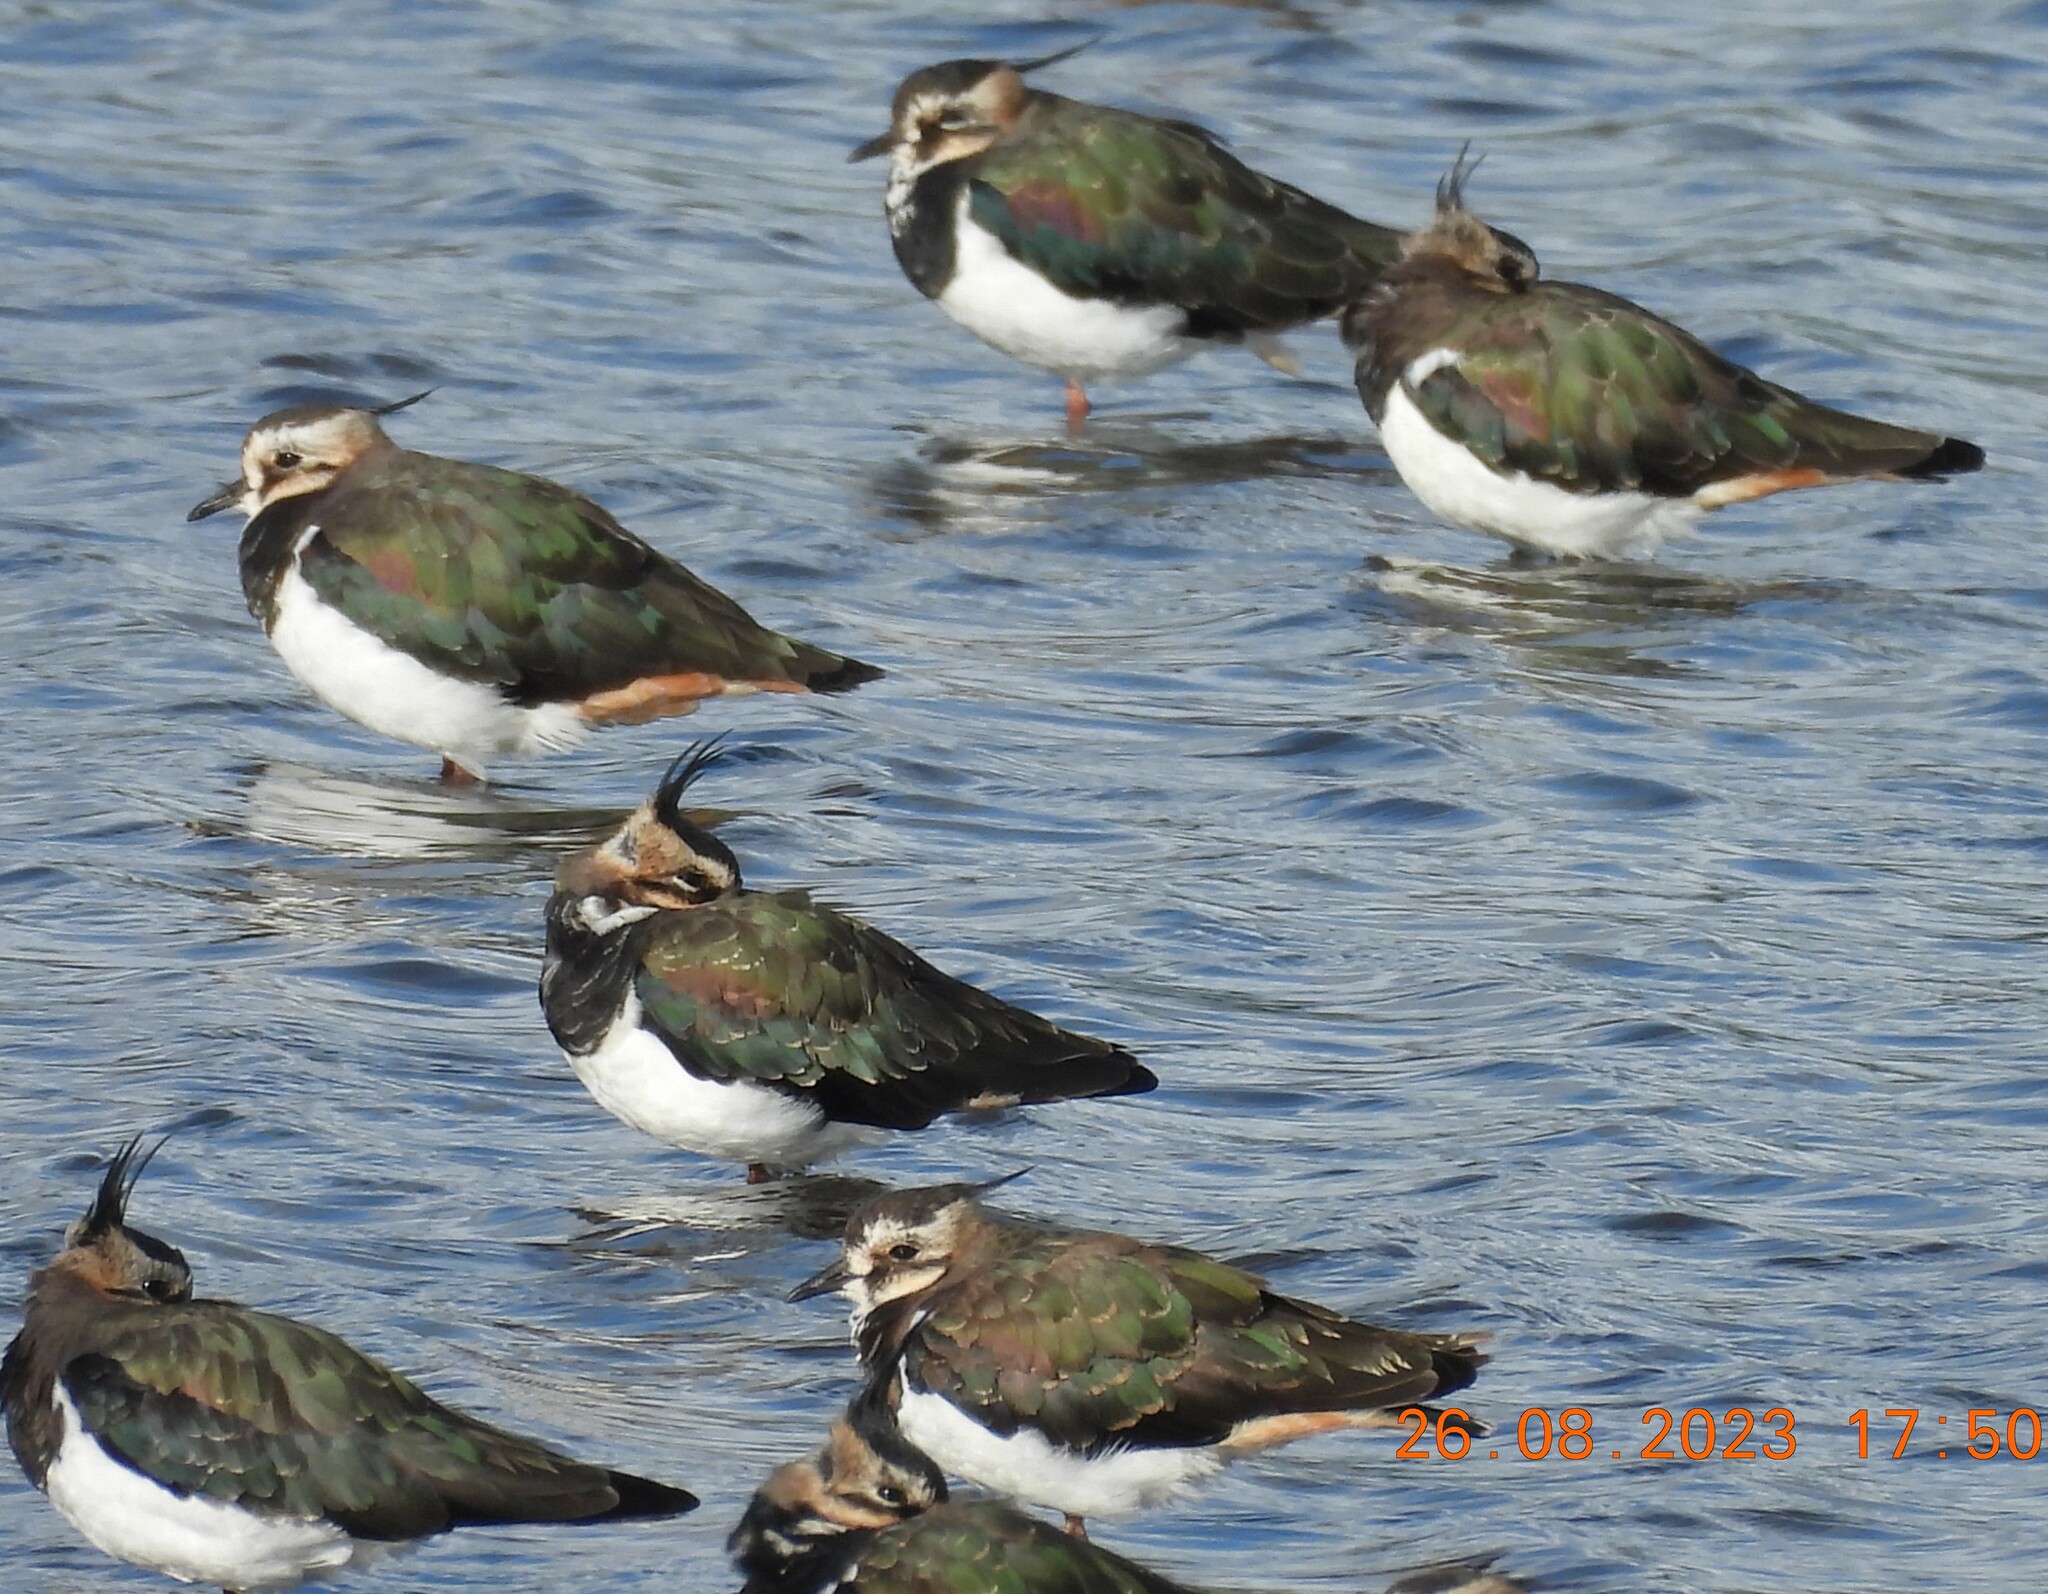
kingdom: Animalia
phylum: Chordata
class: Aves
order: Charadriiformes
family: Charadriidae
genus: Vanellus
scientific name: Vanellus vanellus
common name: Northern lapwing
